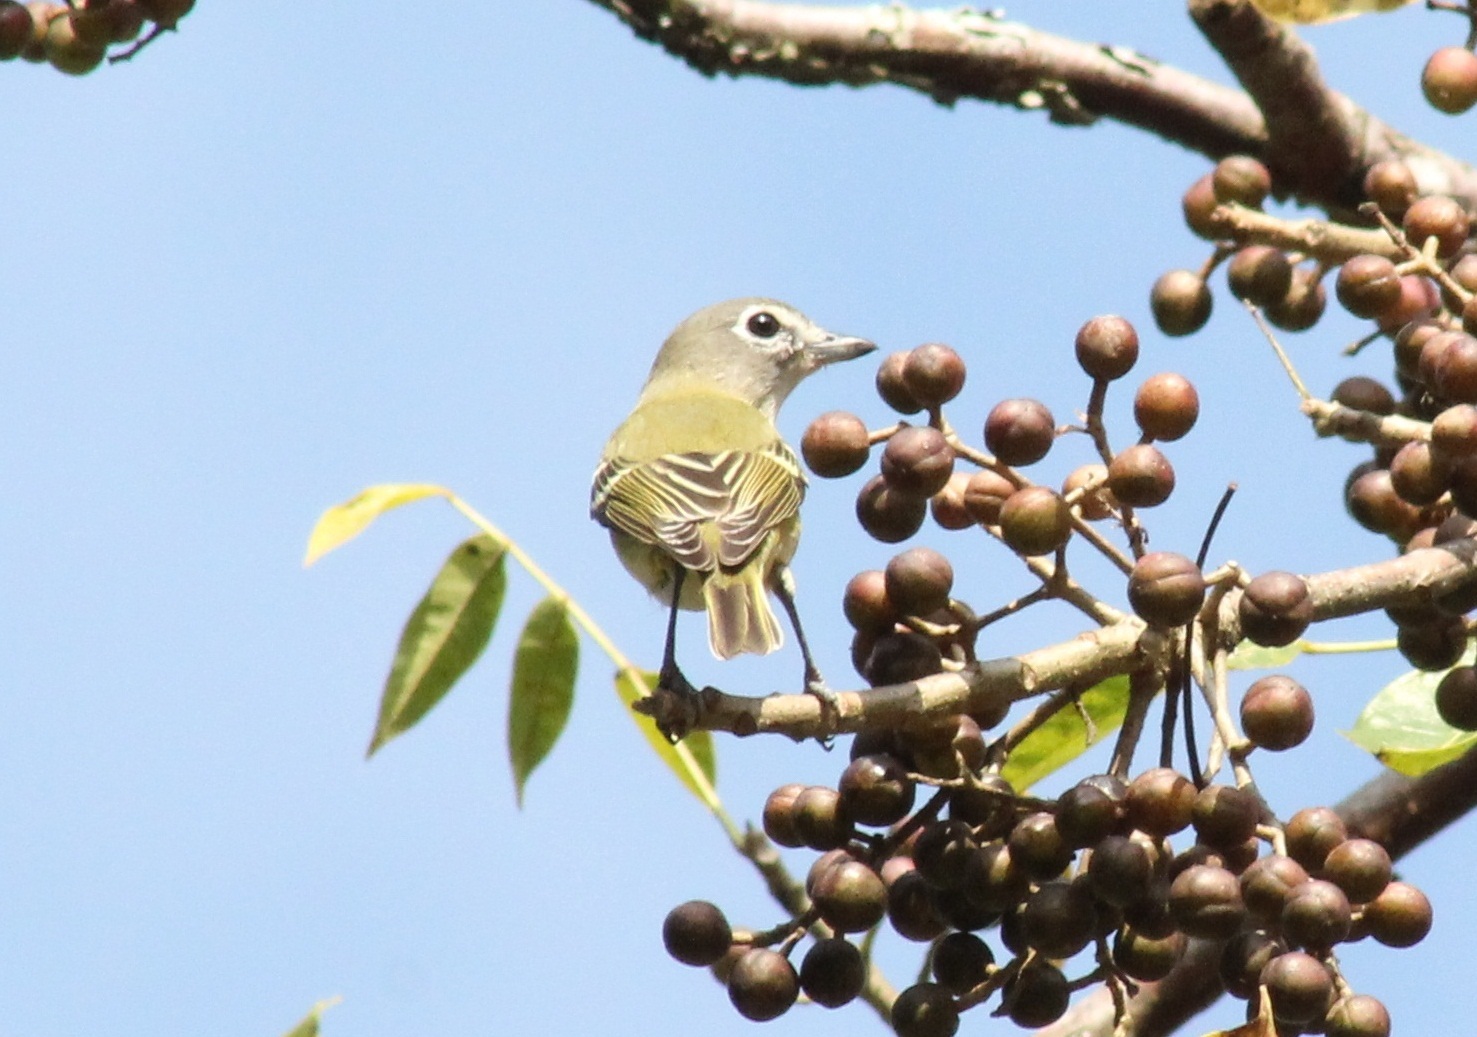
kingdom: Animalia
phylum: Chordata
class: Aves
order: Passeriformes
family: Vireonidae
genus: Vireo
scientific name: Vireo solitarius
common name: Blue-headed vireo
